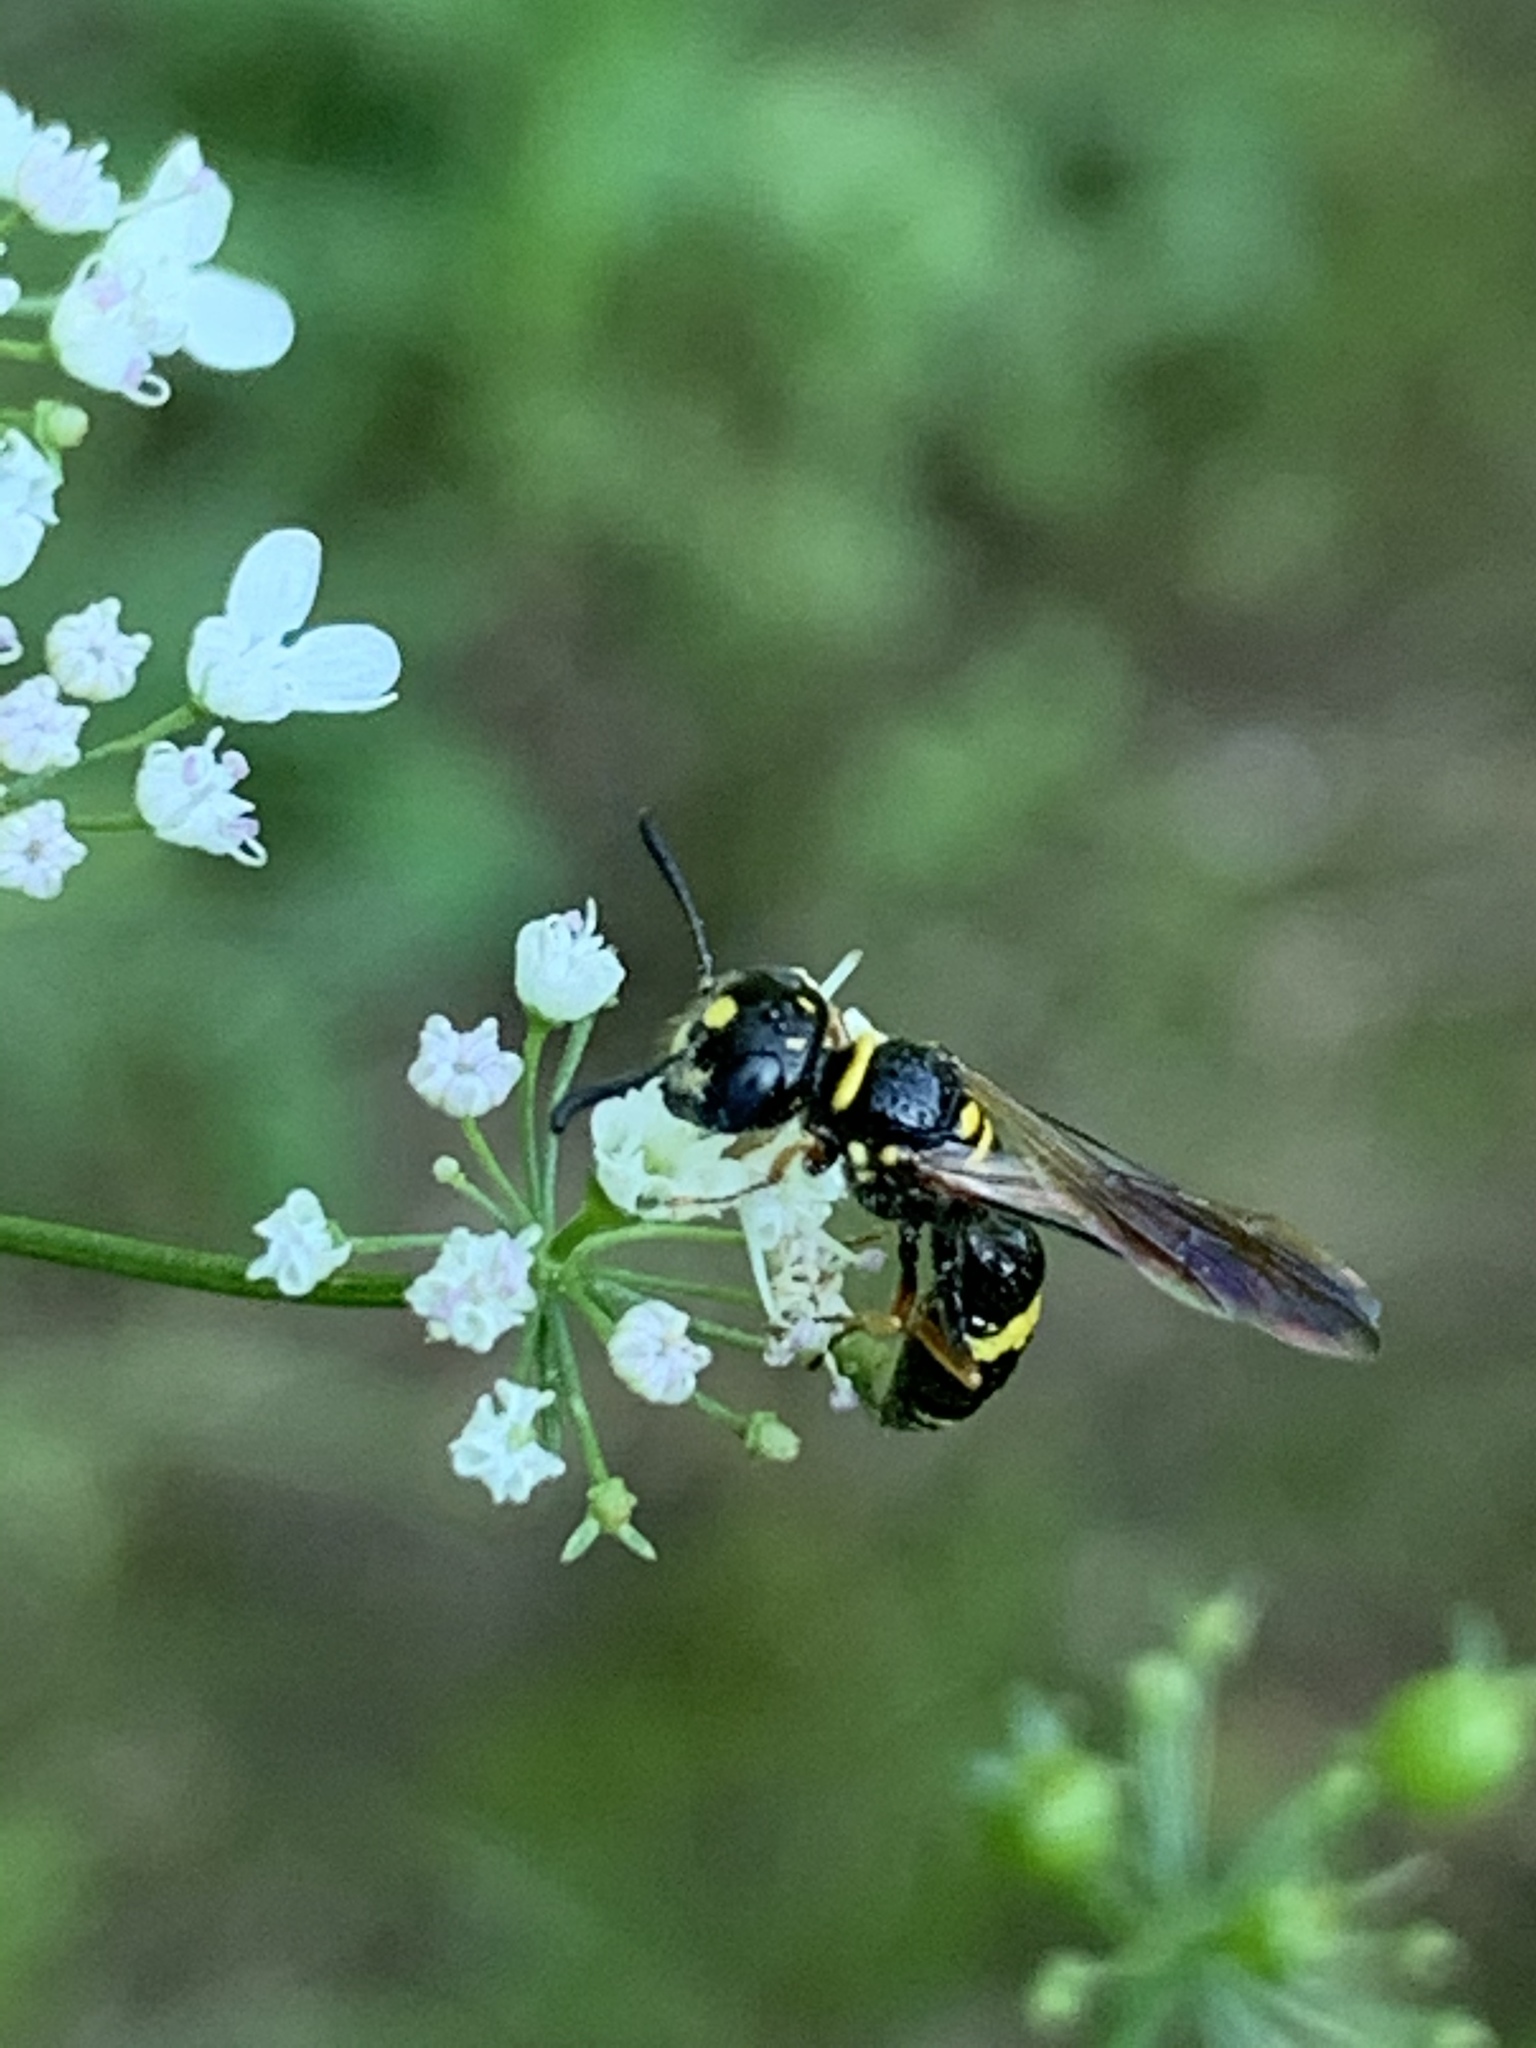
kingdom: Animalia
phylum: Arthropoda
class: Insecta
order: Hymenoptera
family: Crabronidae
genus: Philanthus
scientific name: Philanthus gibbosus
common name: Humped beewolf
